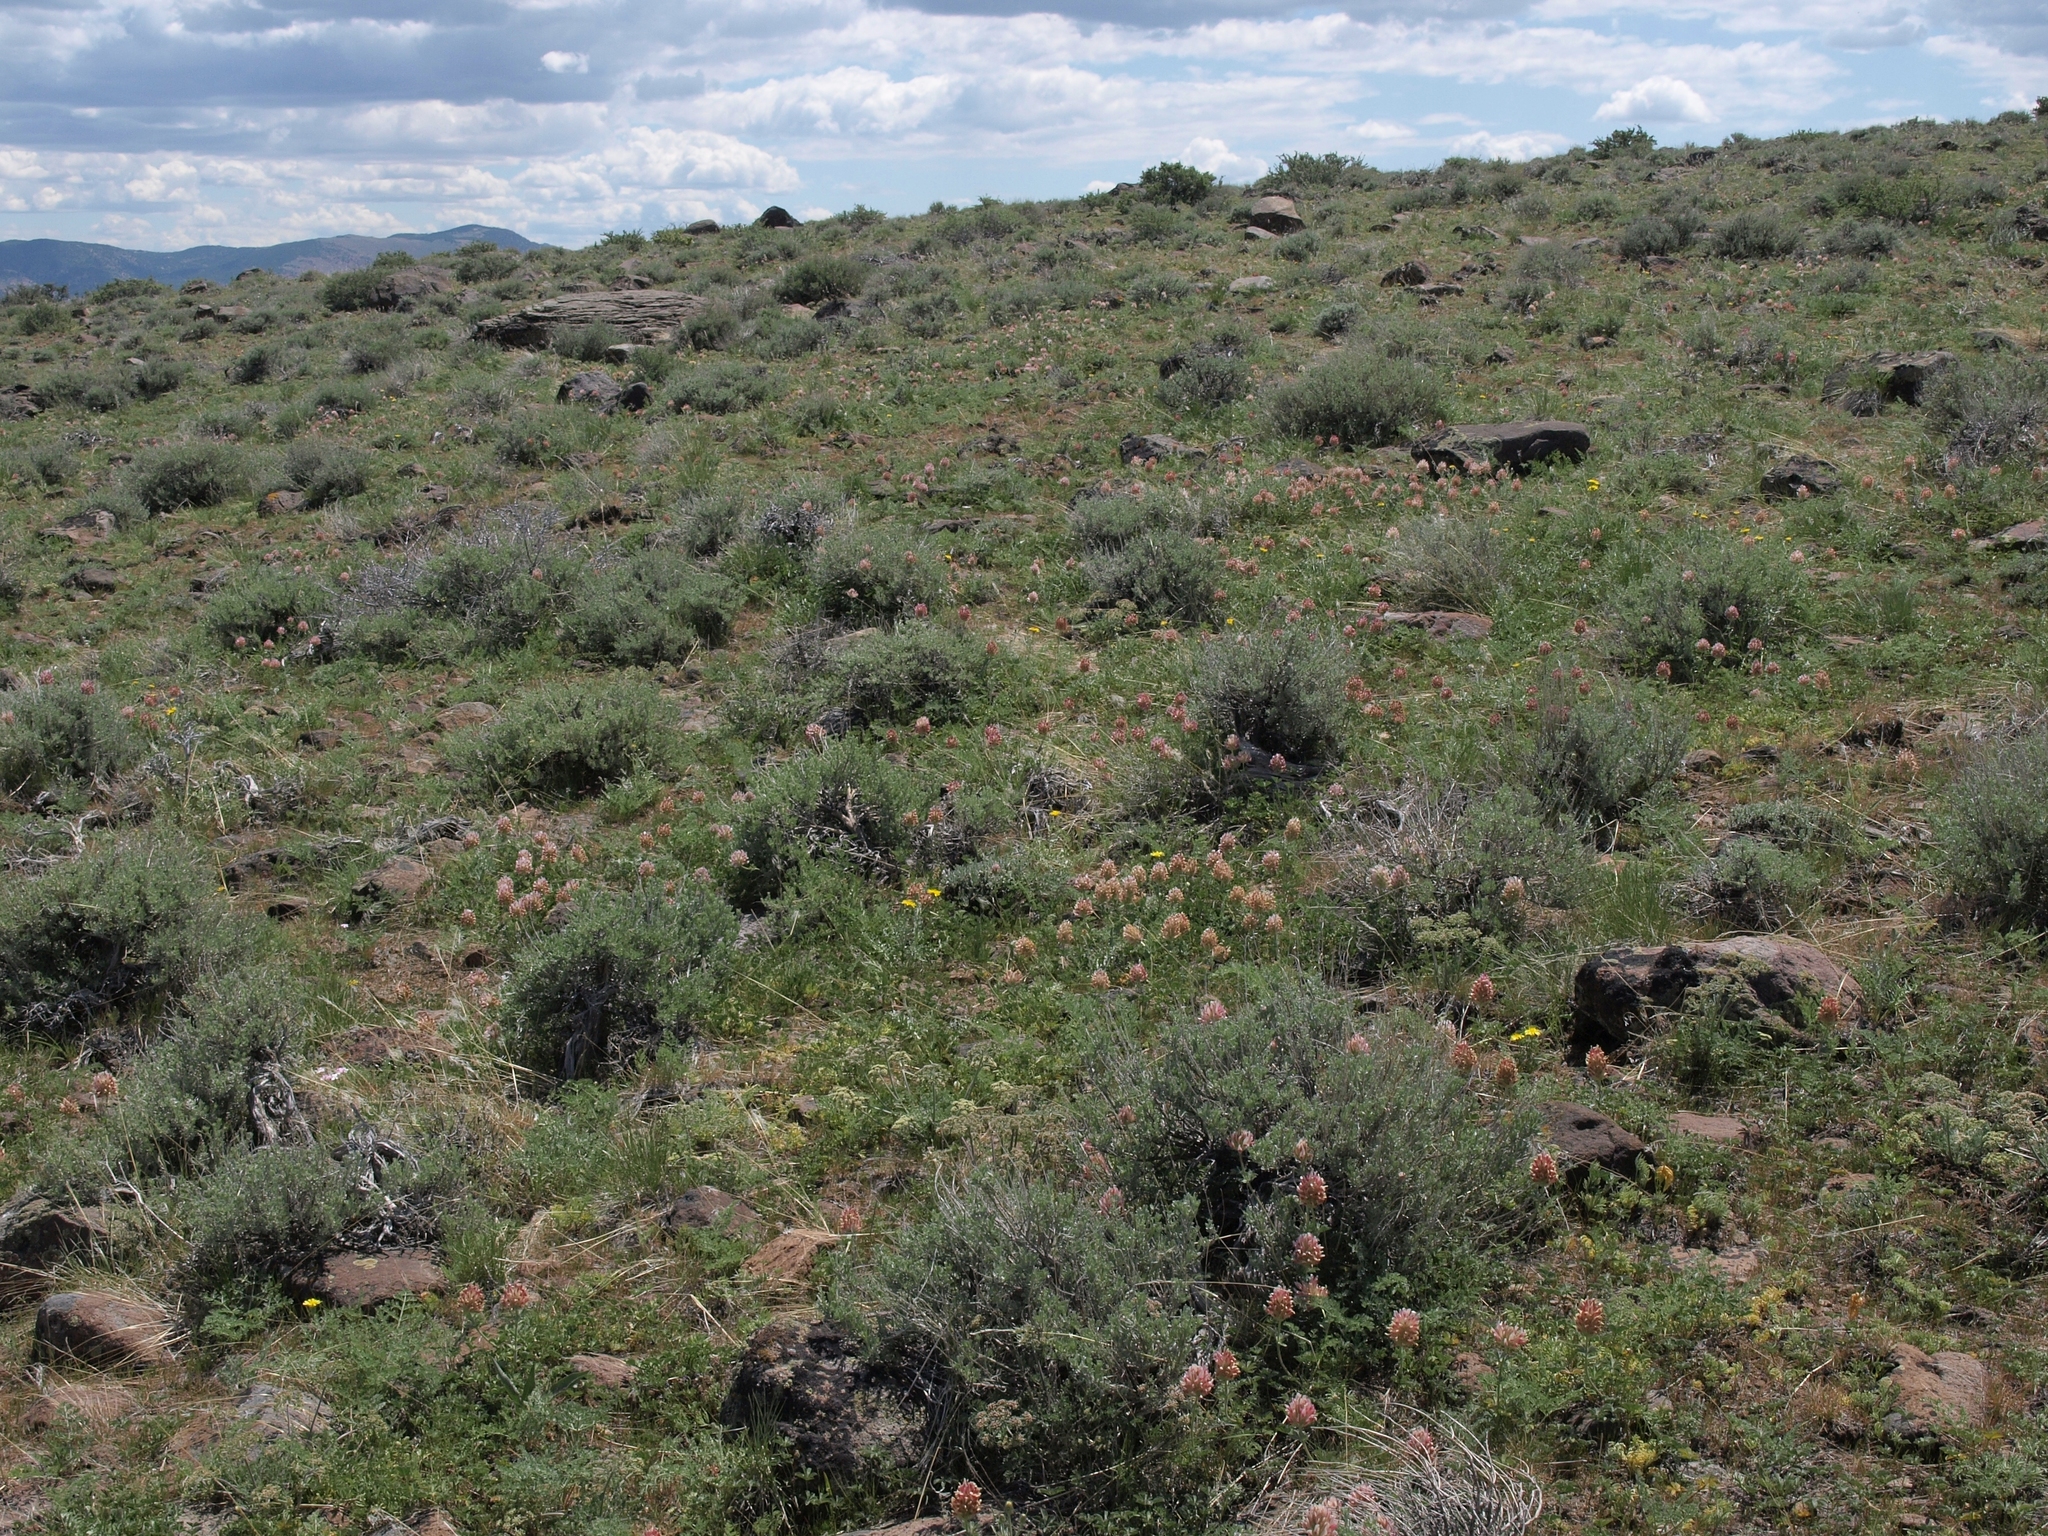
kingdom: Plantae
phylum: Tracheophyta
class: Magnoliopsida
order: Fabales
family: Fabaceae
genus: Trifolium
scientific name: Trifolium macrocephalum
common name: Large-head clover
